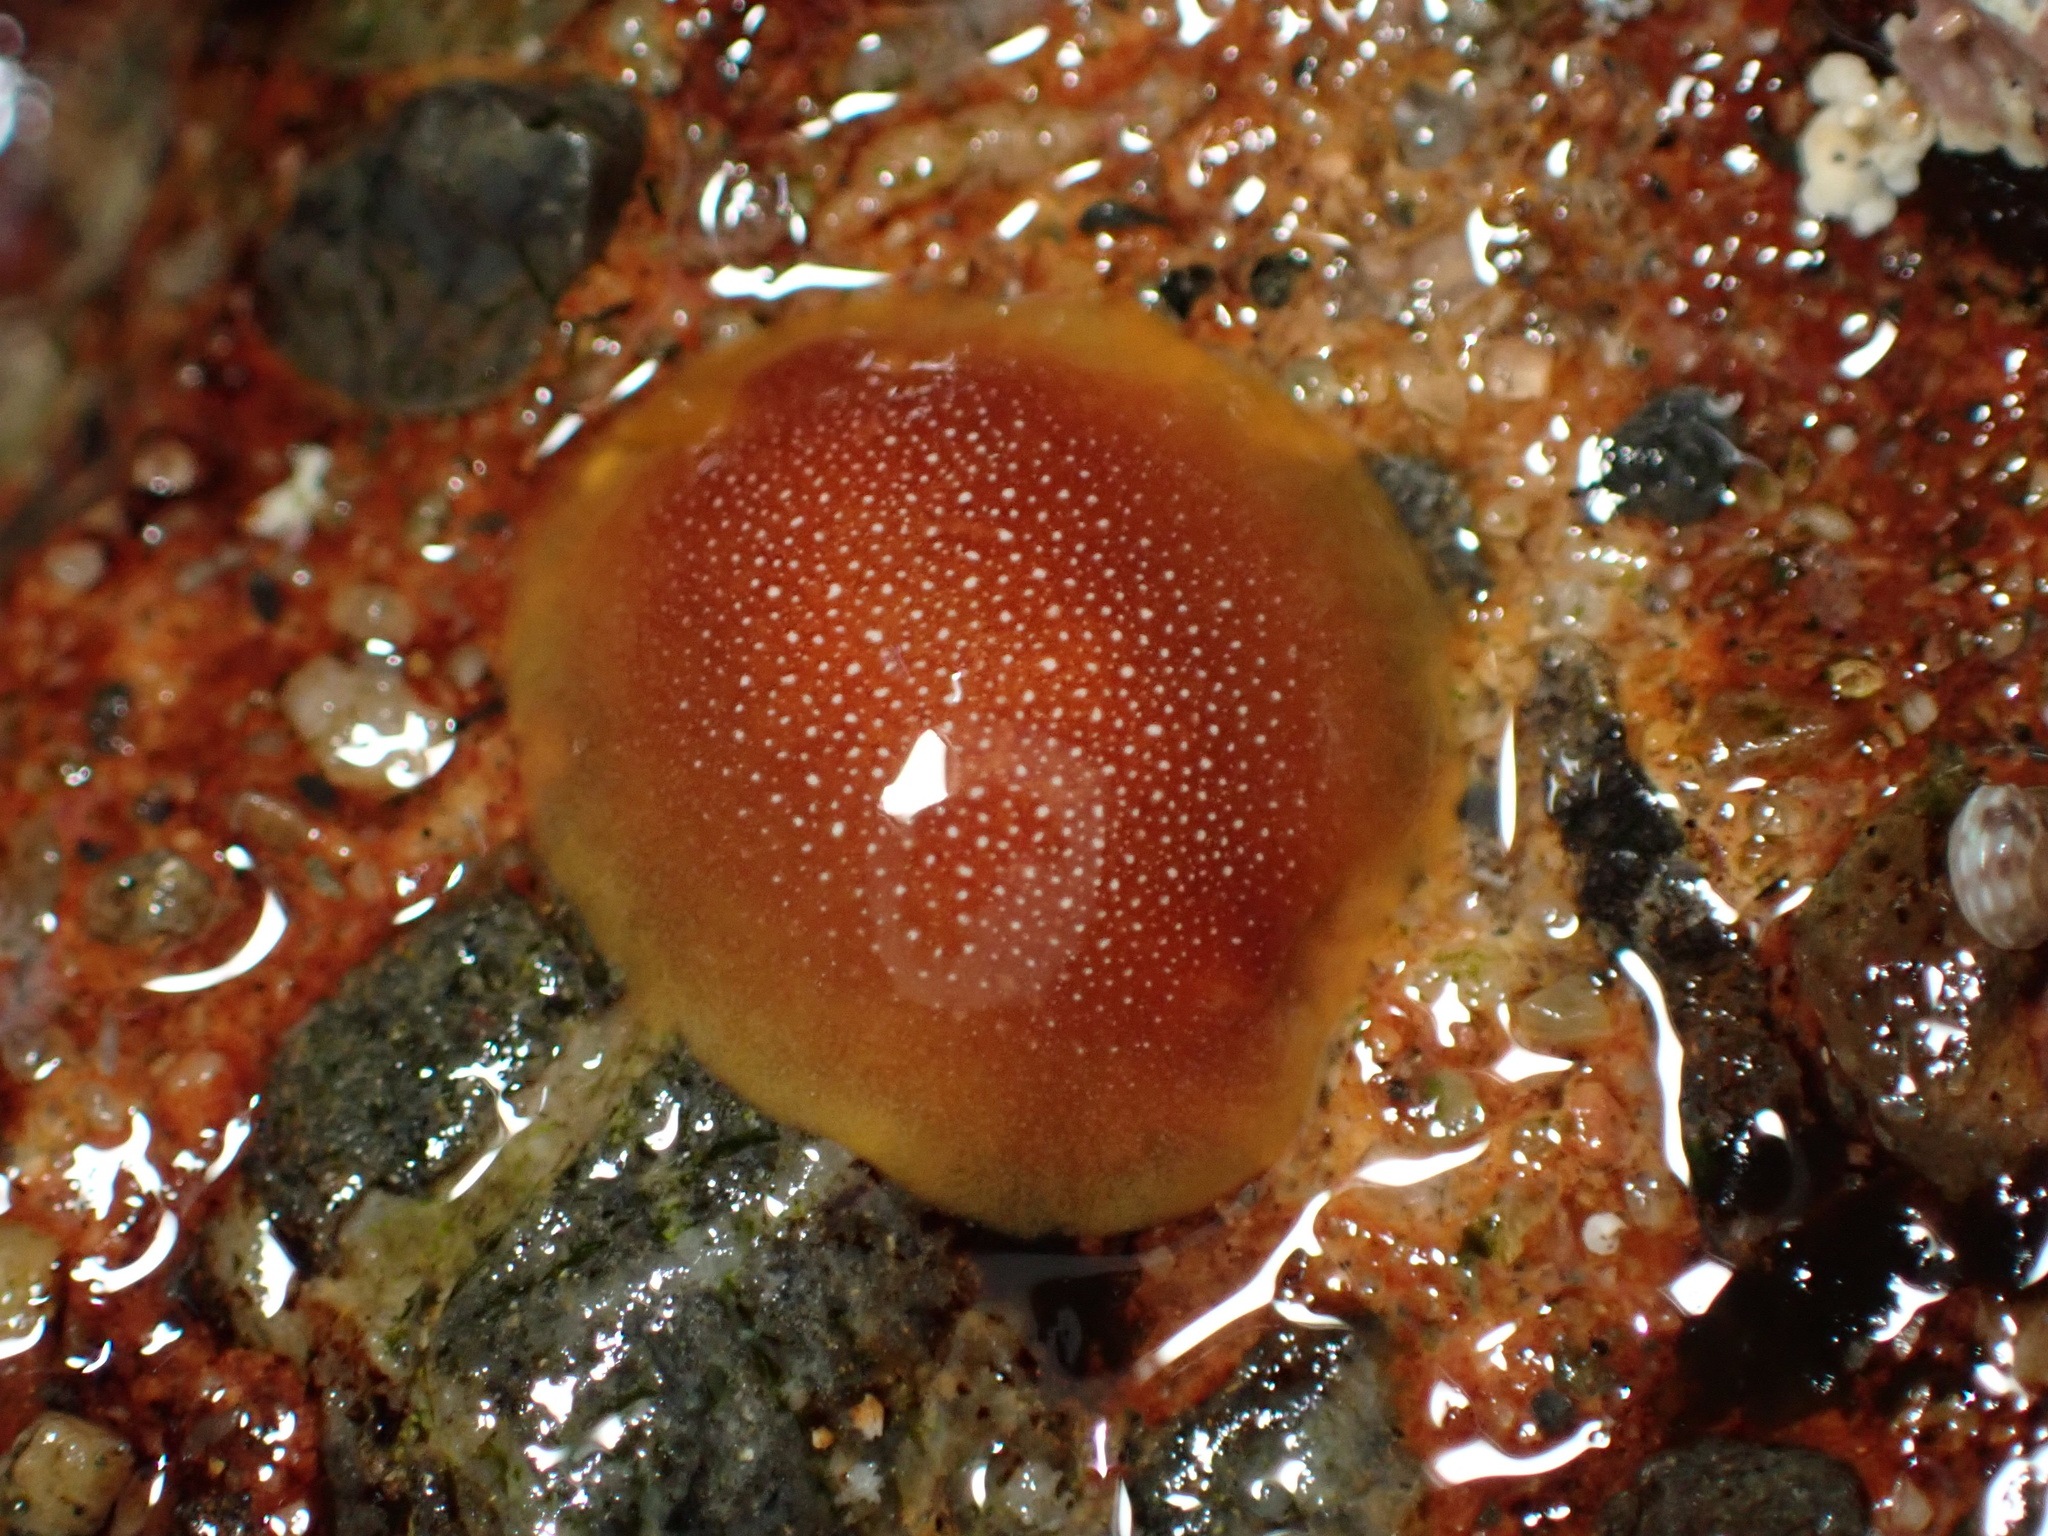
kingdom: Animalia
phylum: Mollusca
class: Gastropoda
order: Nudibranchia
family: Dendrodorididae
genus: Doriopsilla
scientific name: Doriopsilla gemela
